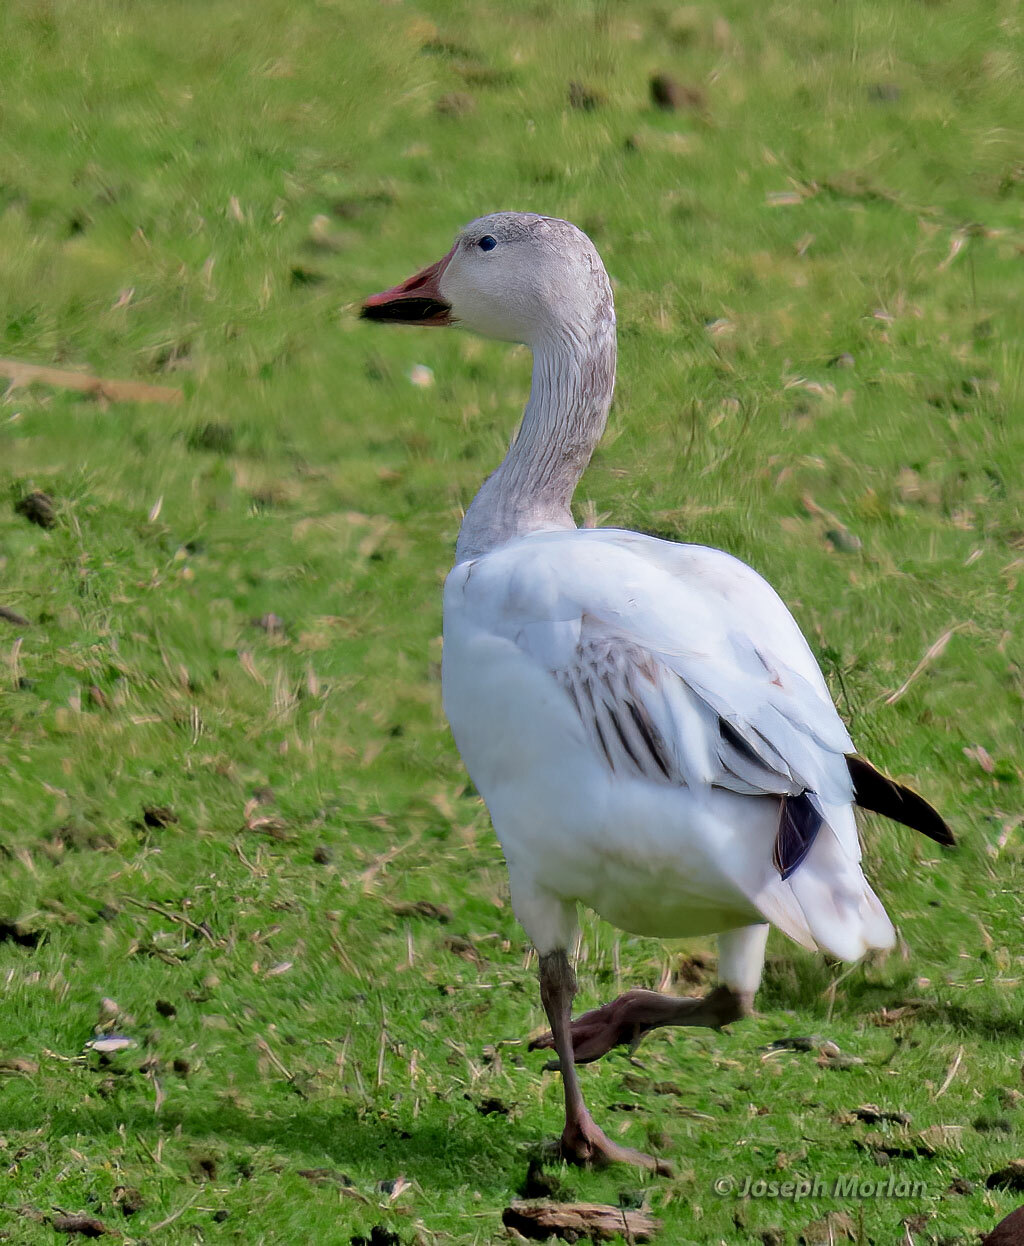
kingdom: Animalia
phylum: Chordata
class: Aves
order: Anseriformes
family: Anatidae
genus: Anser
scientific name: Anser caerulescens
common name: Snow goose
